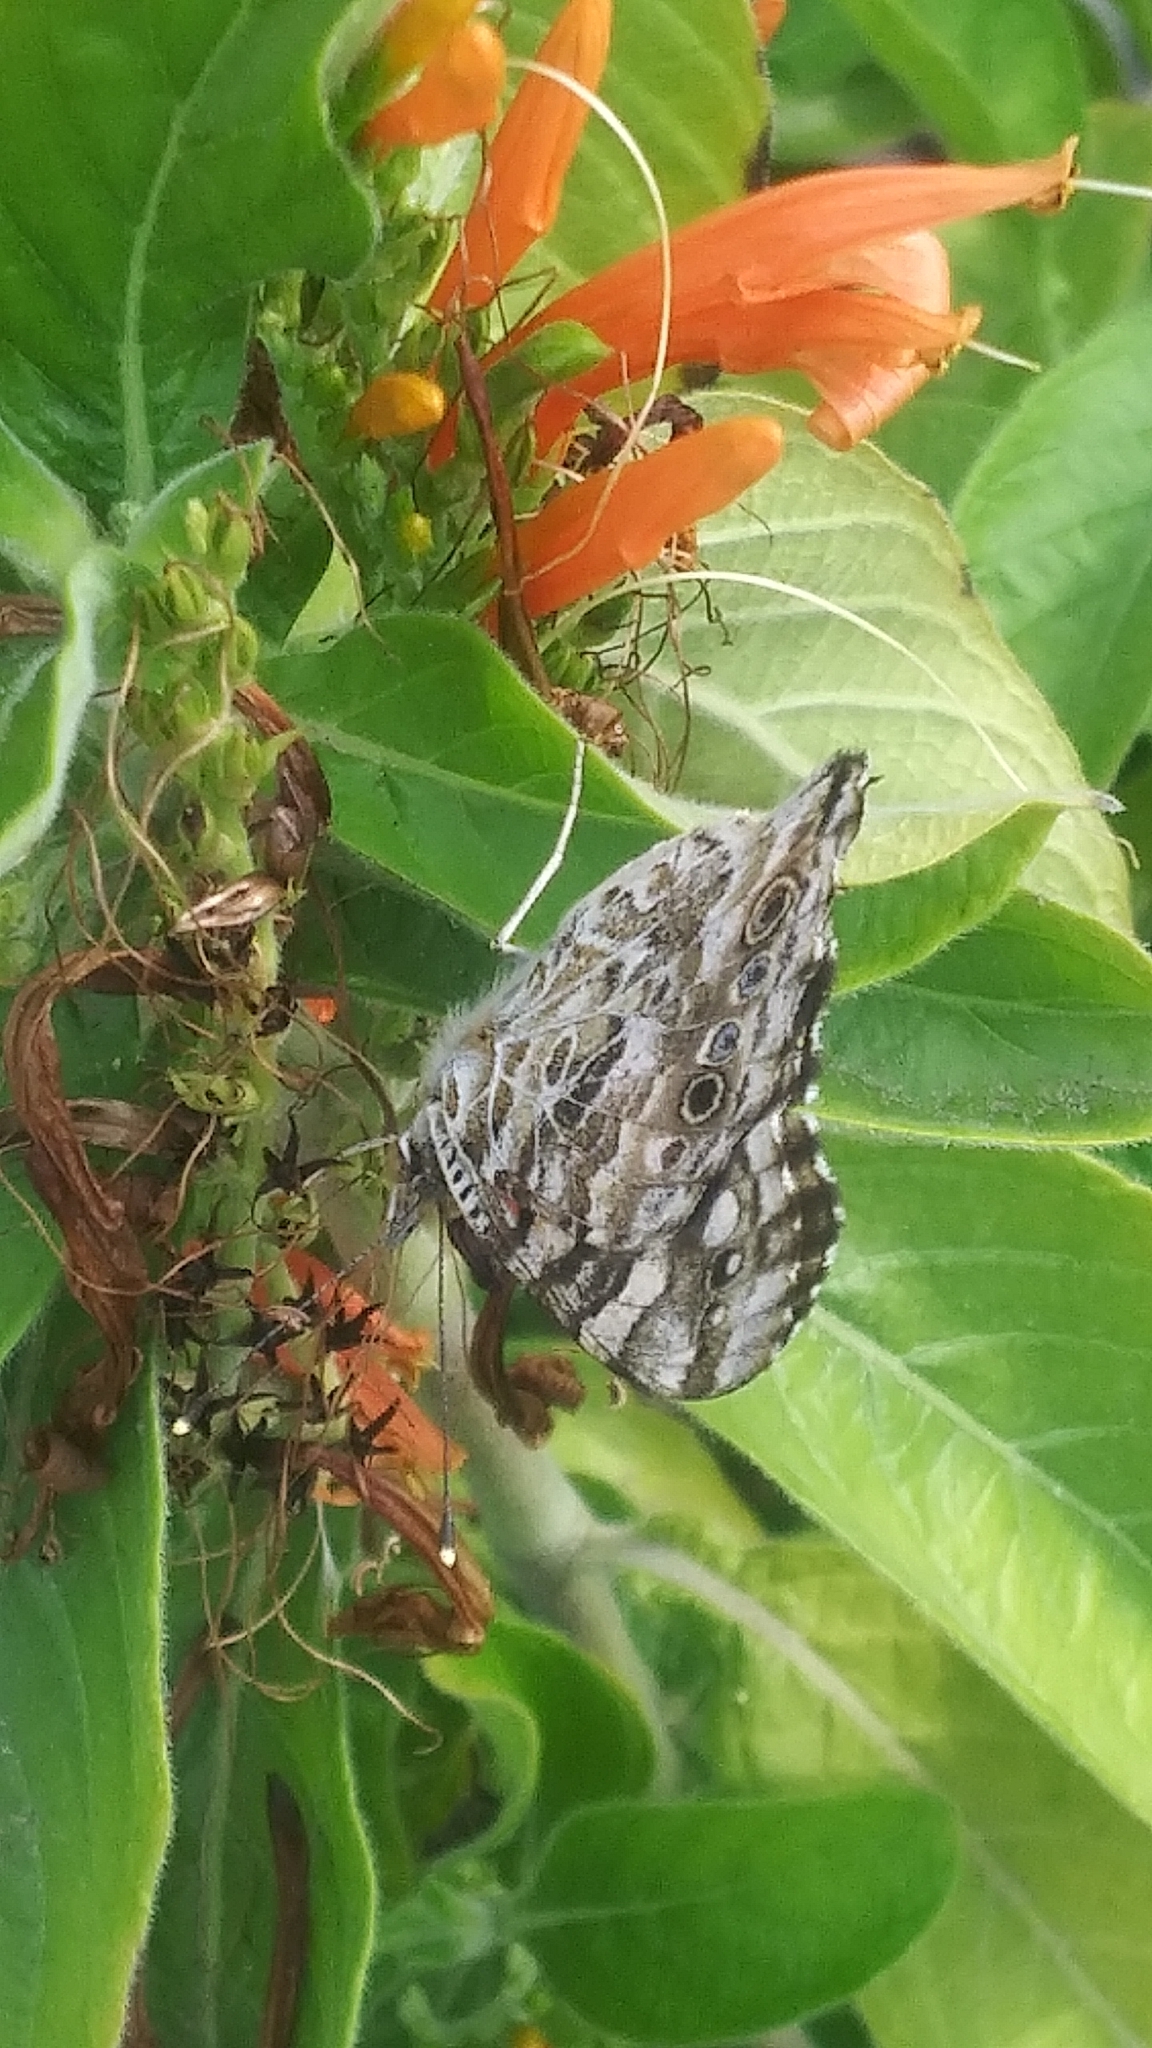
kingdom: Animalia
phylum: Arthropoda
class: Insecta
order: Lepidoptera
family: Nymphalidae
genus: Vanessa
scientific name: Vanessa cardui
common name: Painted lady
